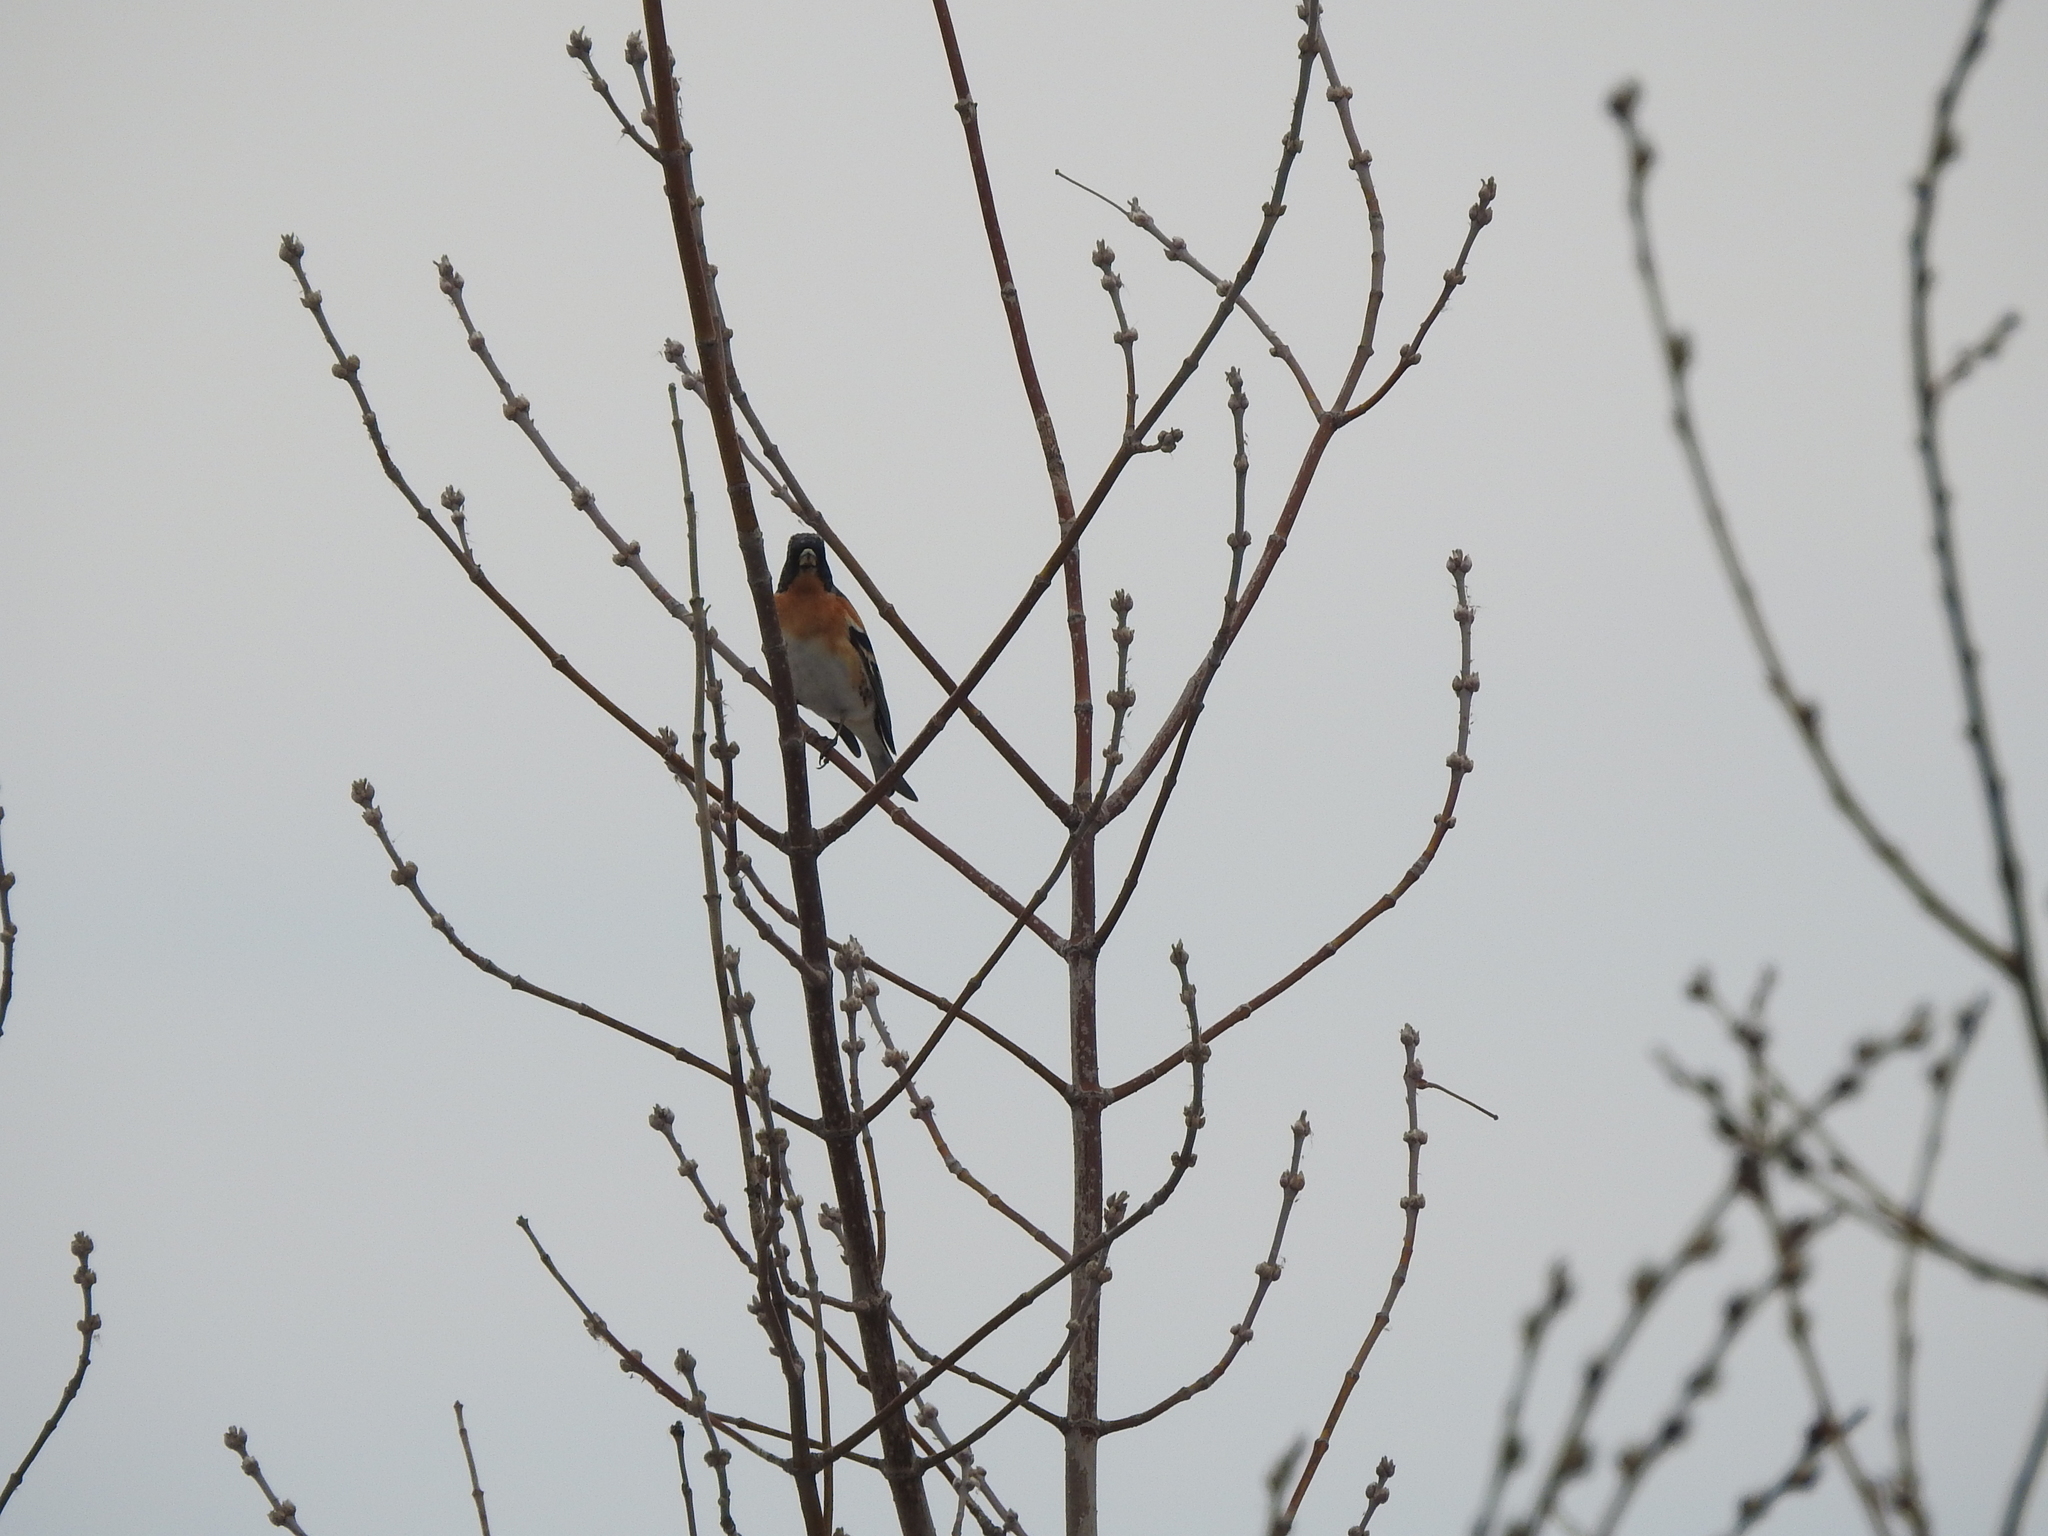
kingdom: Animalia
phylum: Chordata
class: Aves
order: Passeriformes
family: Fringillidae
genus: Fringilla
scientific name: Fringilla montifringilla
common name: Brambling
